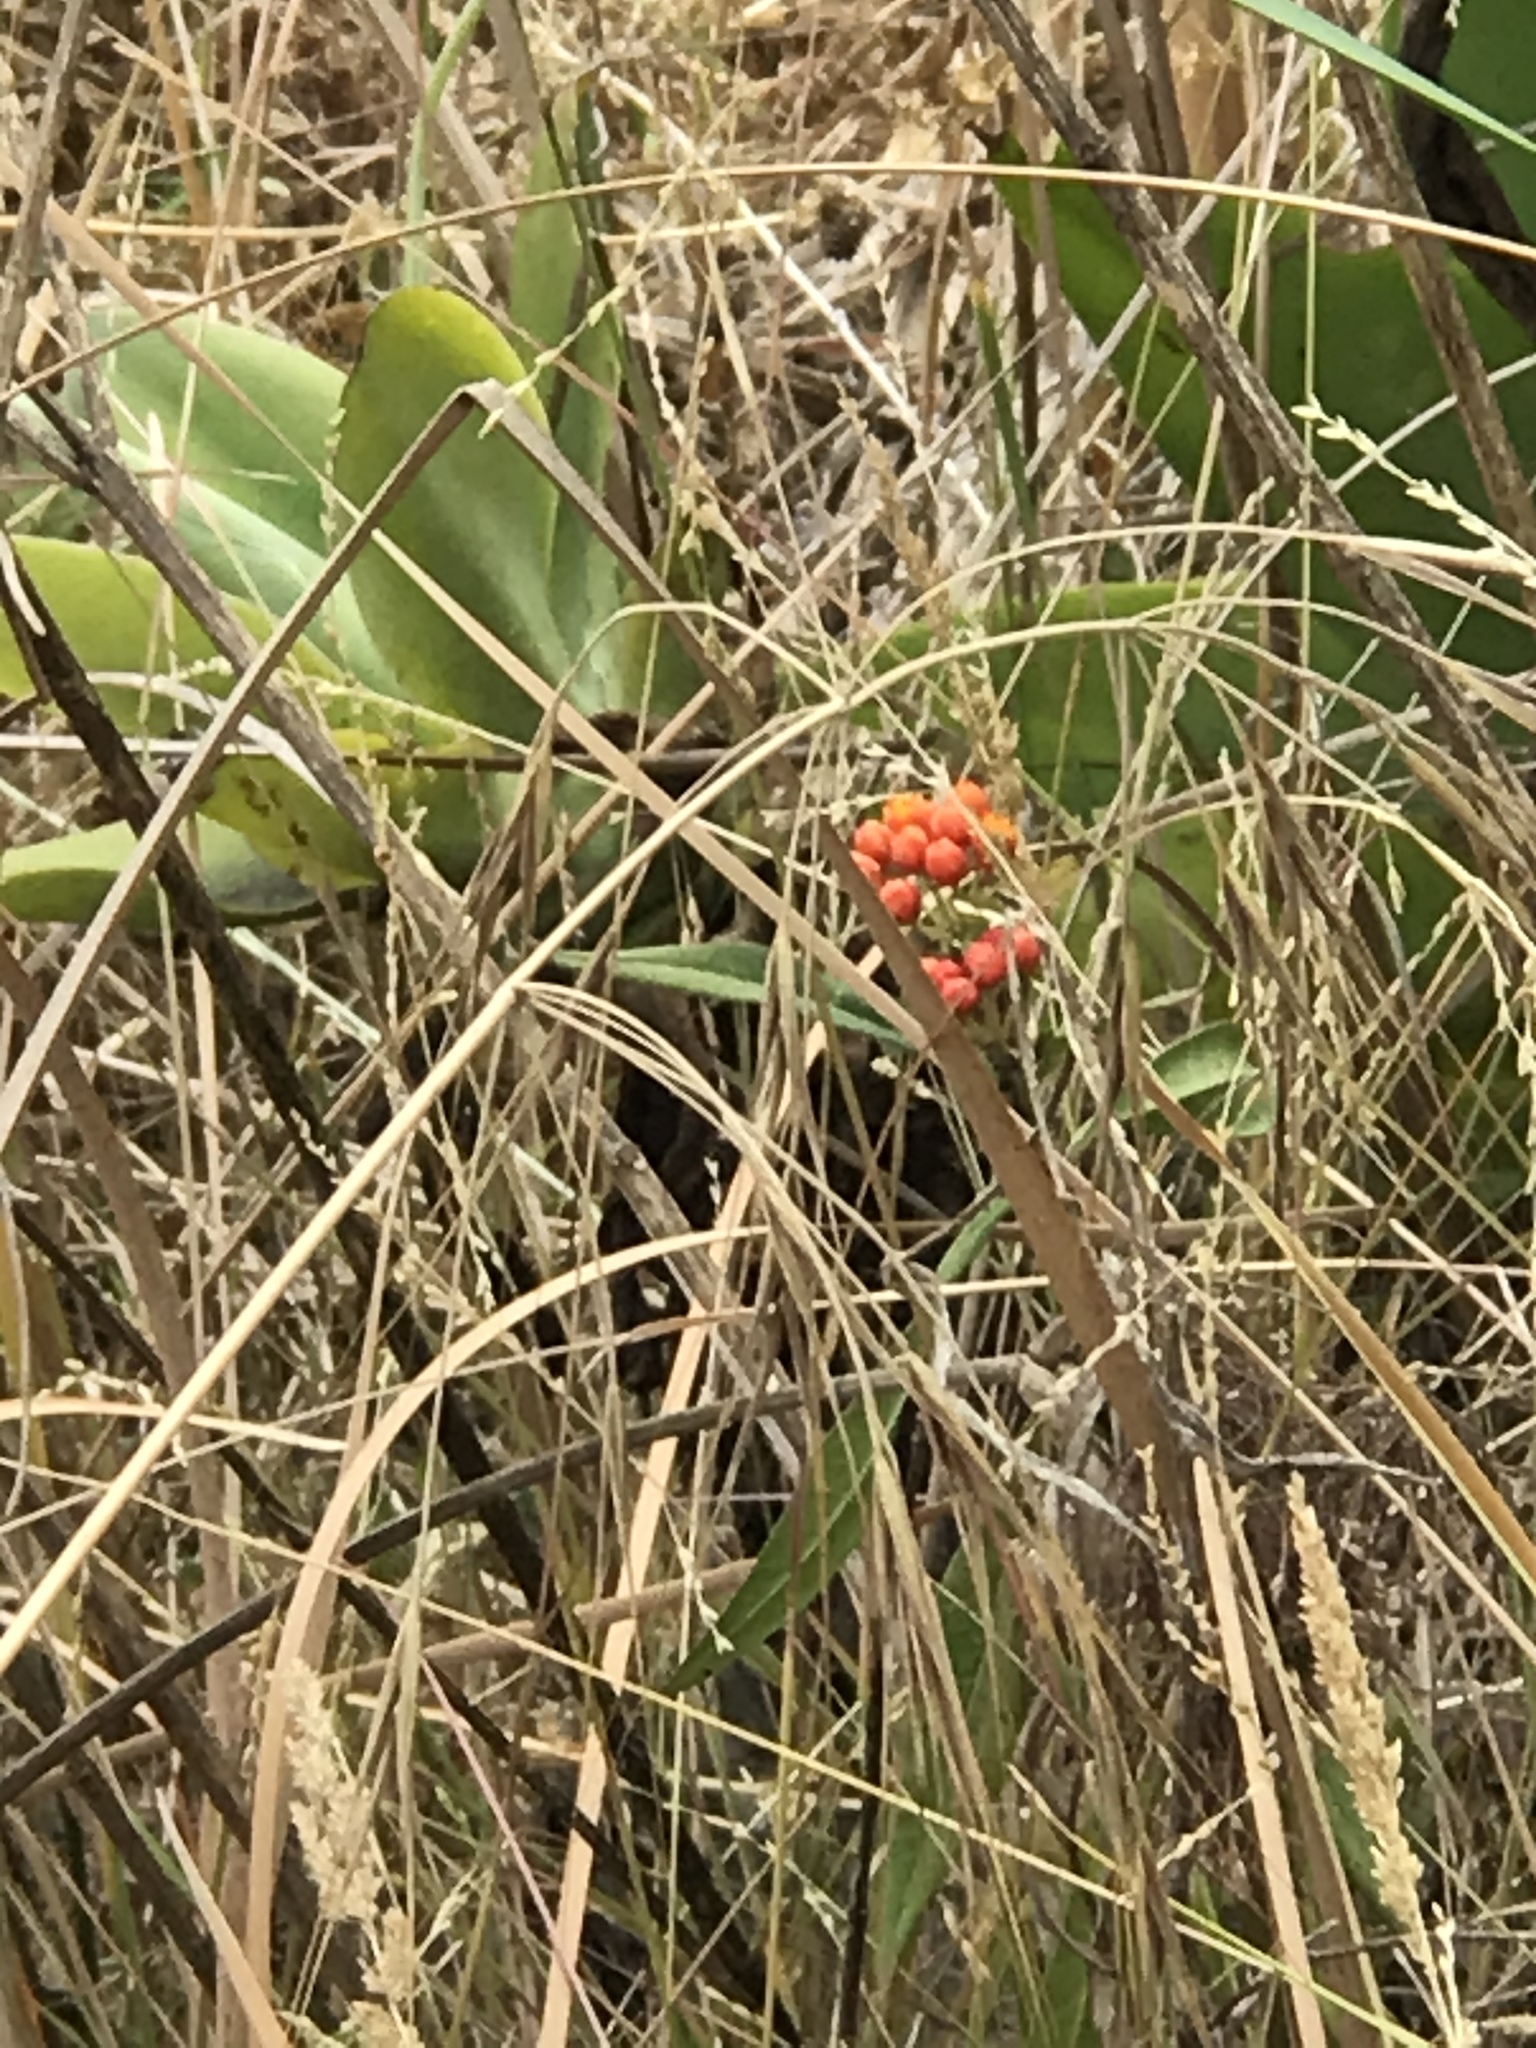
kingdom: Plantae
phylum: Tracheophyta
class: Magnoliopsida
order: Gentianales
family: Apocynaceae
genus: Asclepias
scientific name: Asclepias curassavica
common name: Bloodflower
